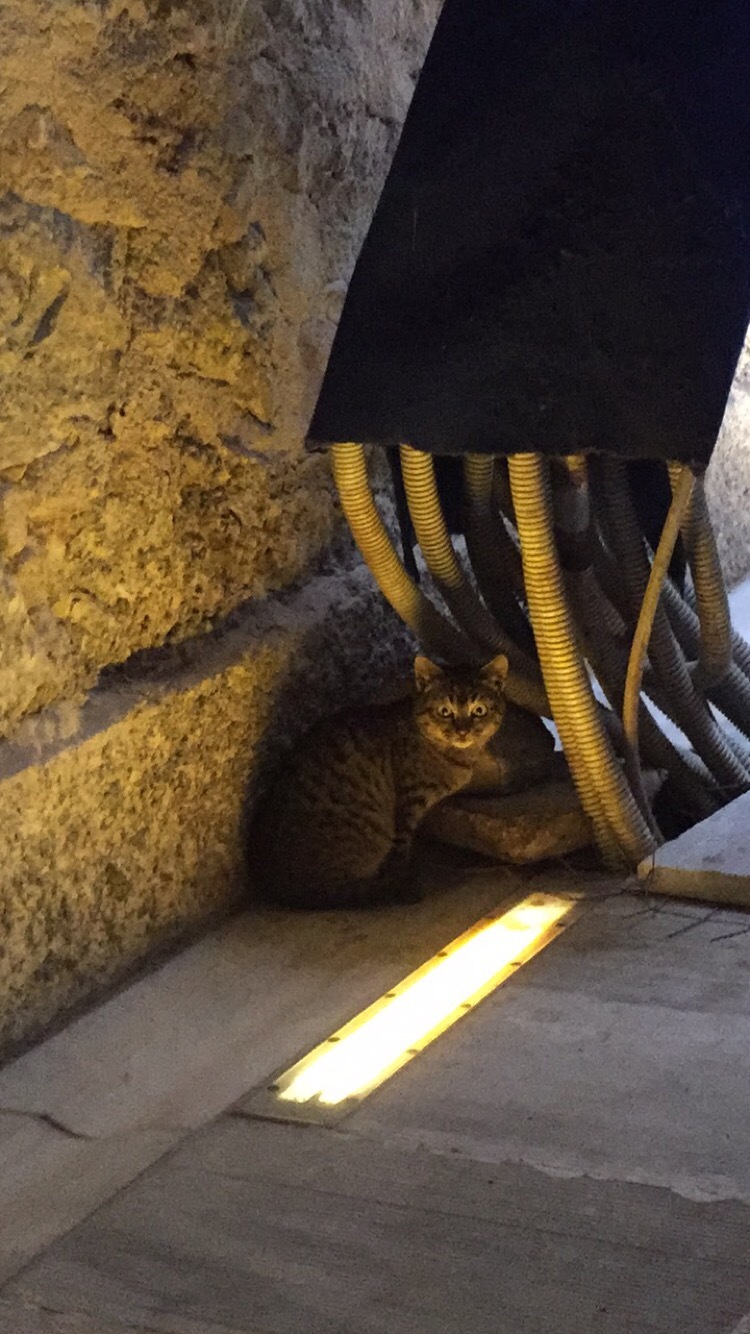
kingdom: Animalia
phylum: Chordata
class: Mammalia
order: Carnivora
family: Felidae
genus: Felis
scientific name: Felis catus
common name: Domestic cat
